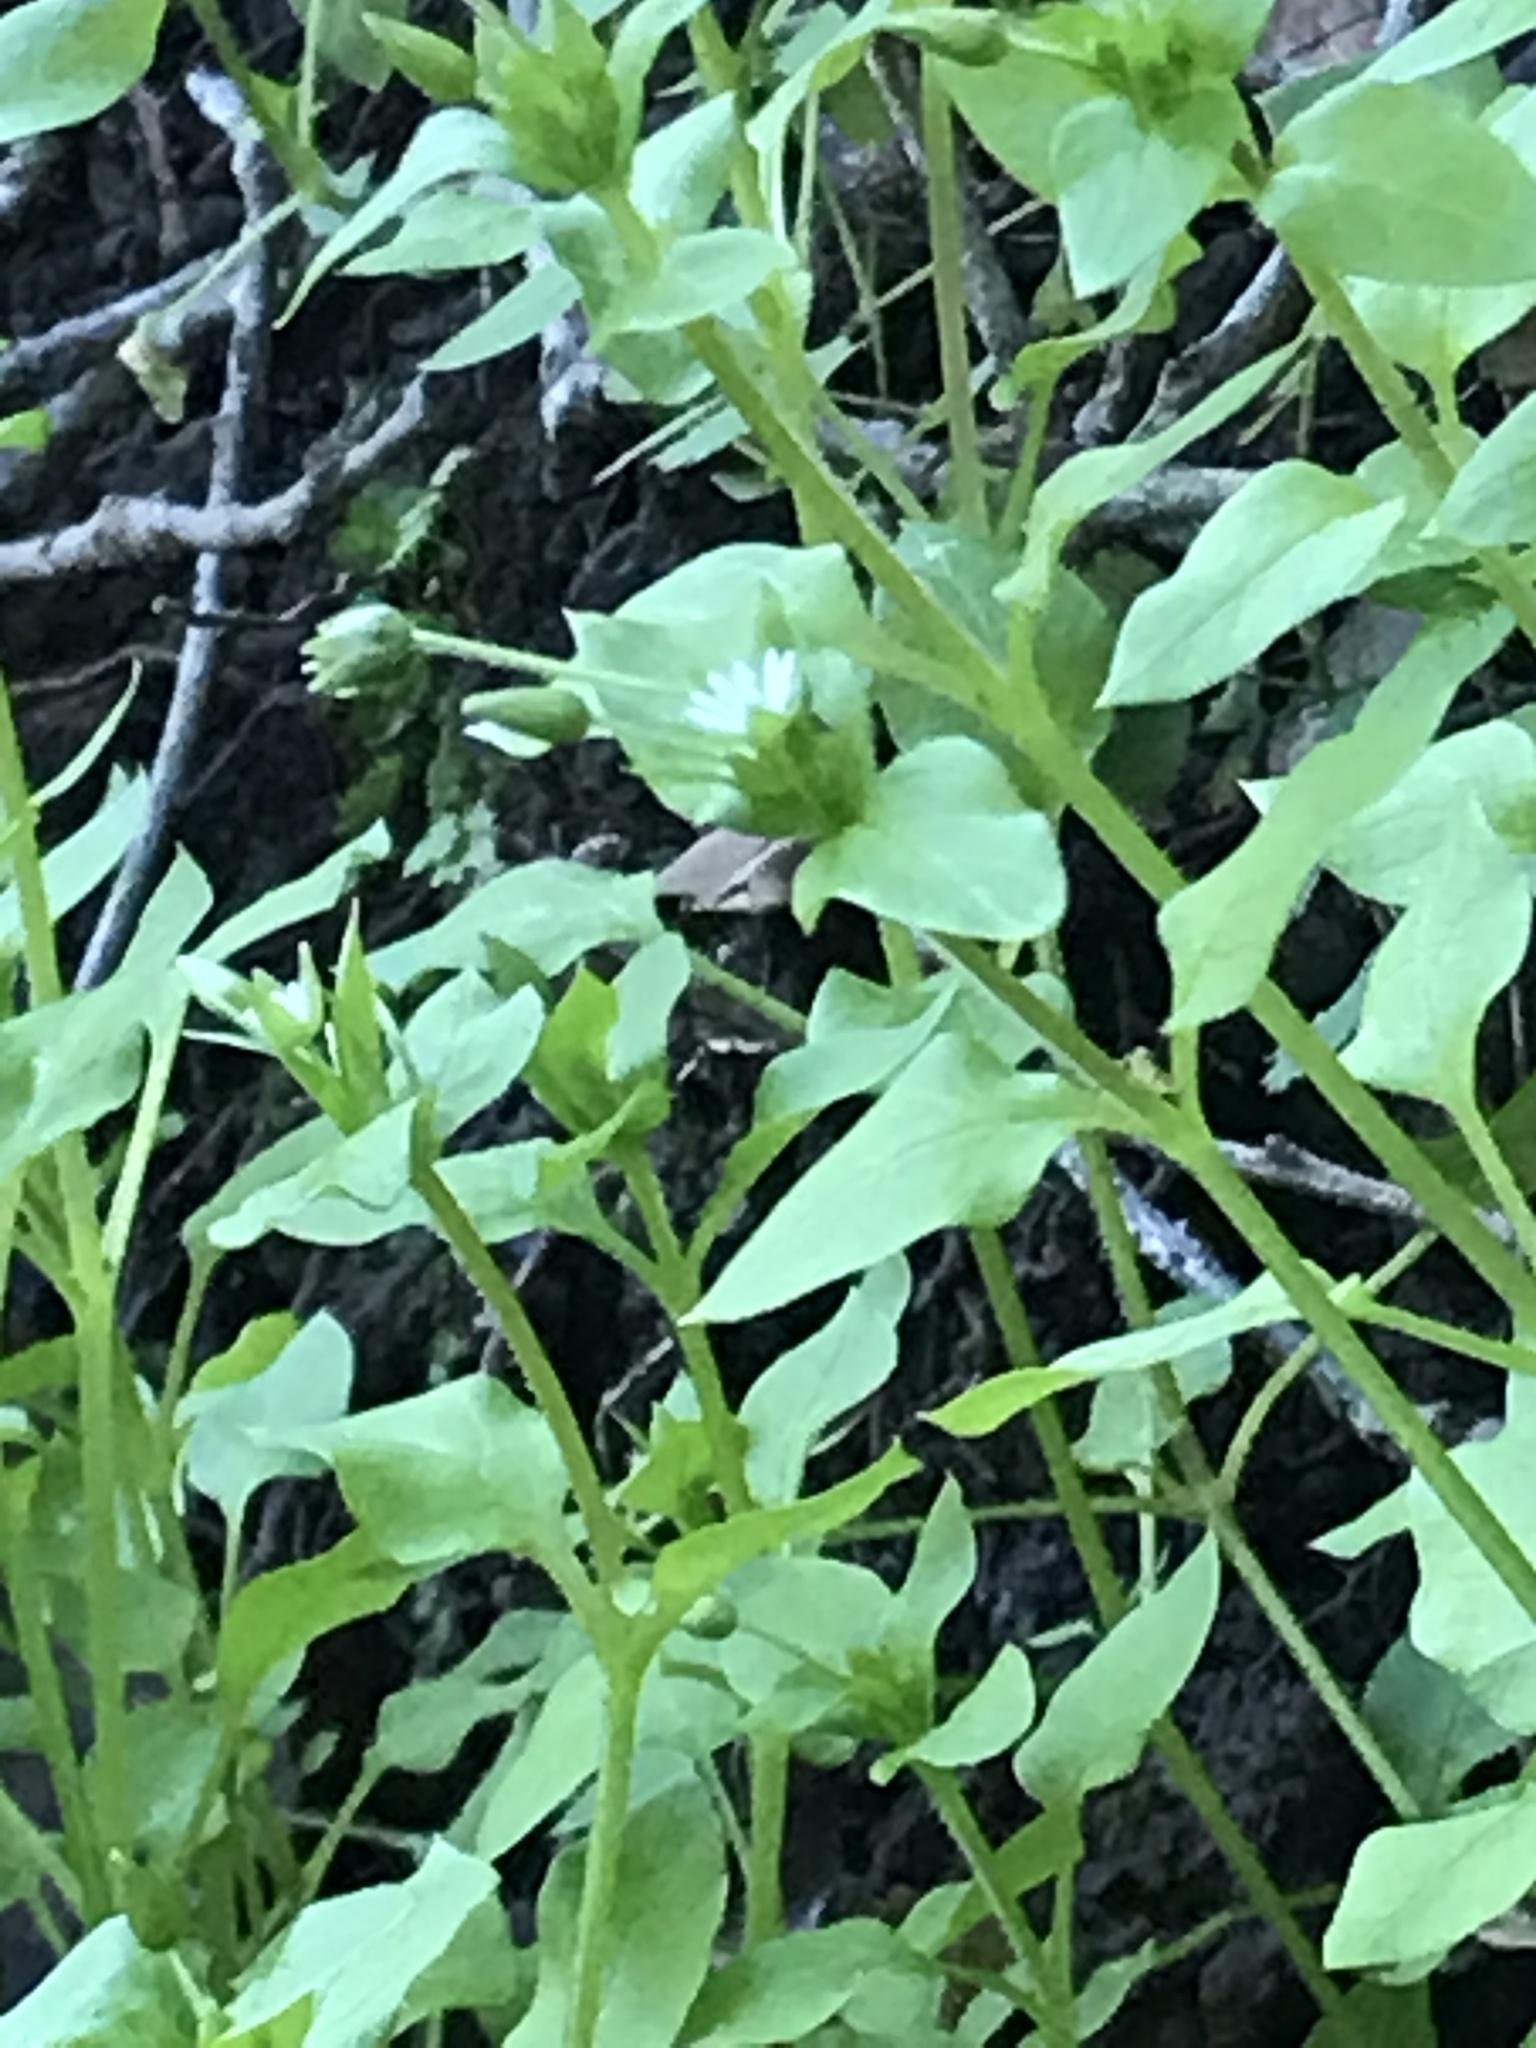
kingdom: Plantae
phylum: Tracheophyta
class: Magnoliopsida
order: Caryophyllales
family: Caryophyllaceae
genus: Stellaria
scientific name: Stellaria media
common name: Common chickweed
